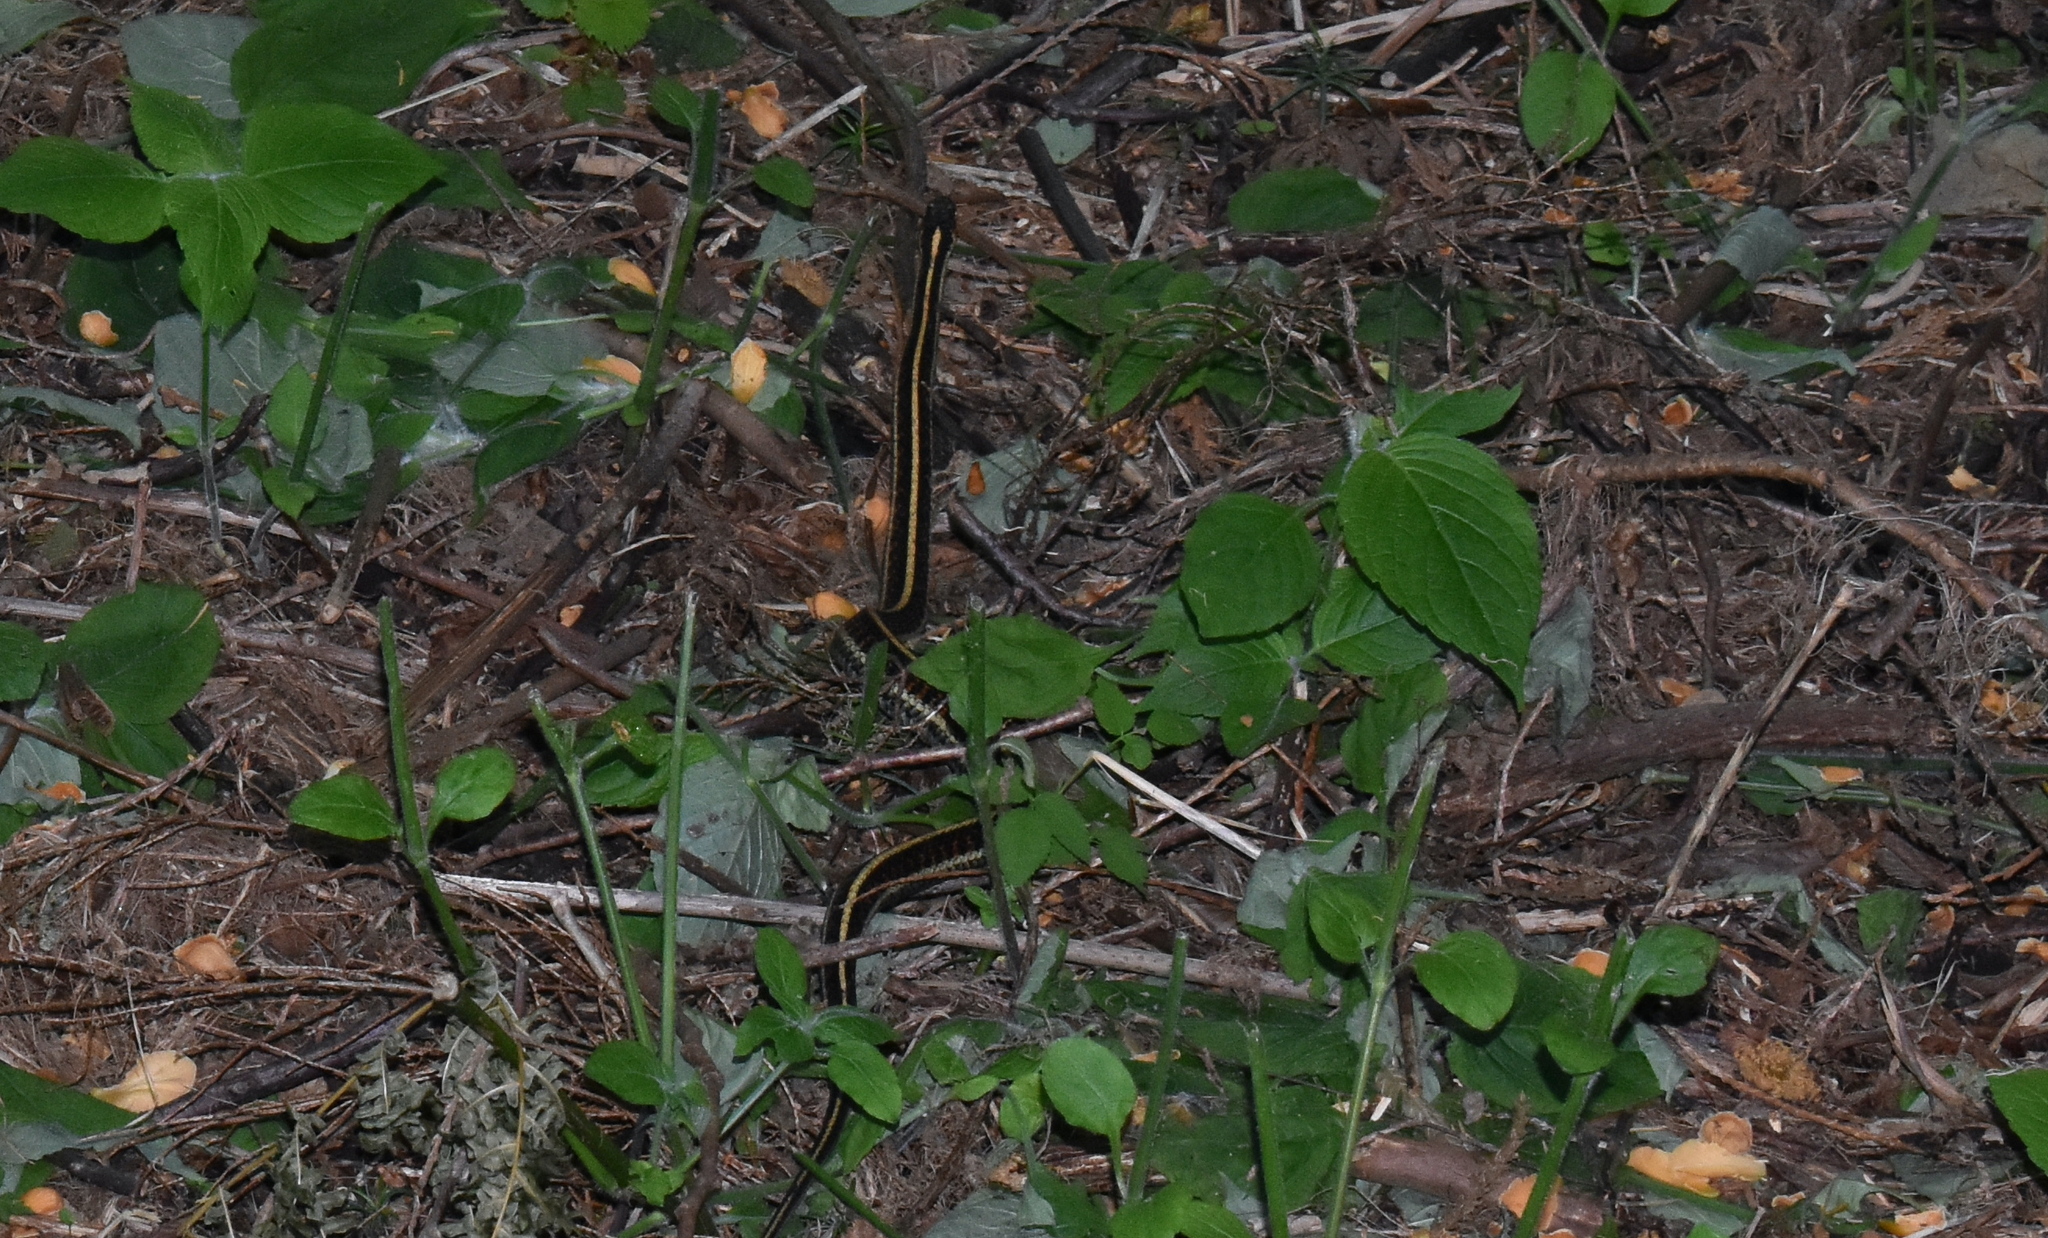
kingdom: Animalia
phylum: Chordata
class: Squamata
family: Colubridae
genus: Thamnophis
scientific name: Thamnophis ordinoides
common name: Northwestern garter snake
